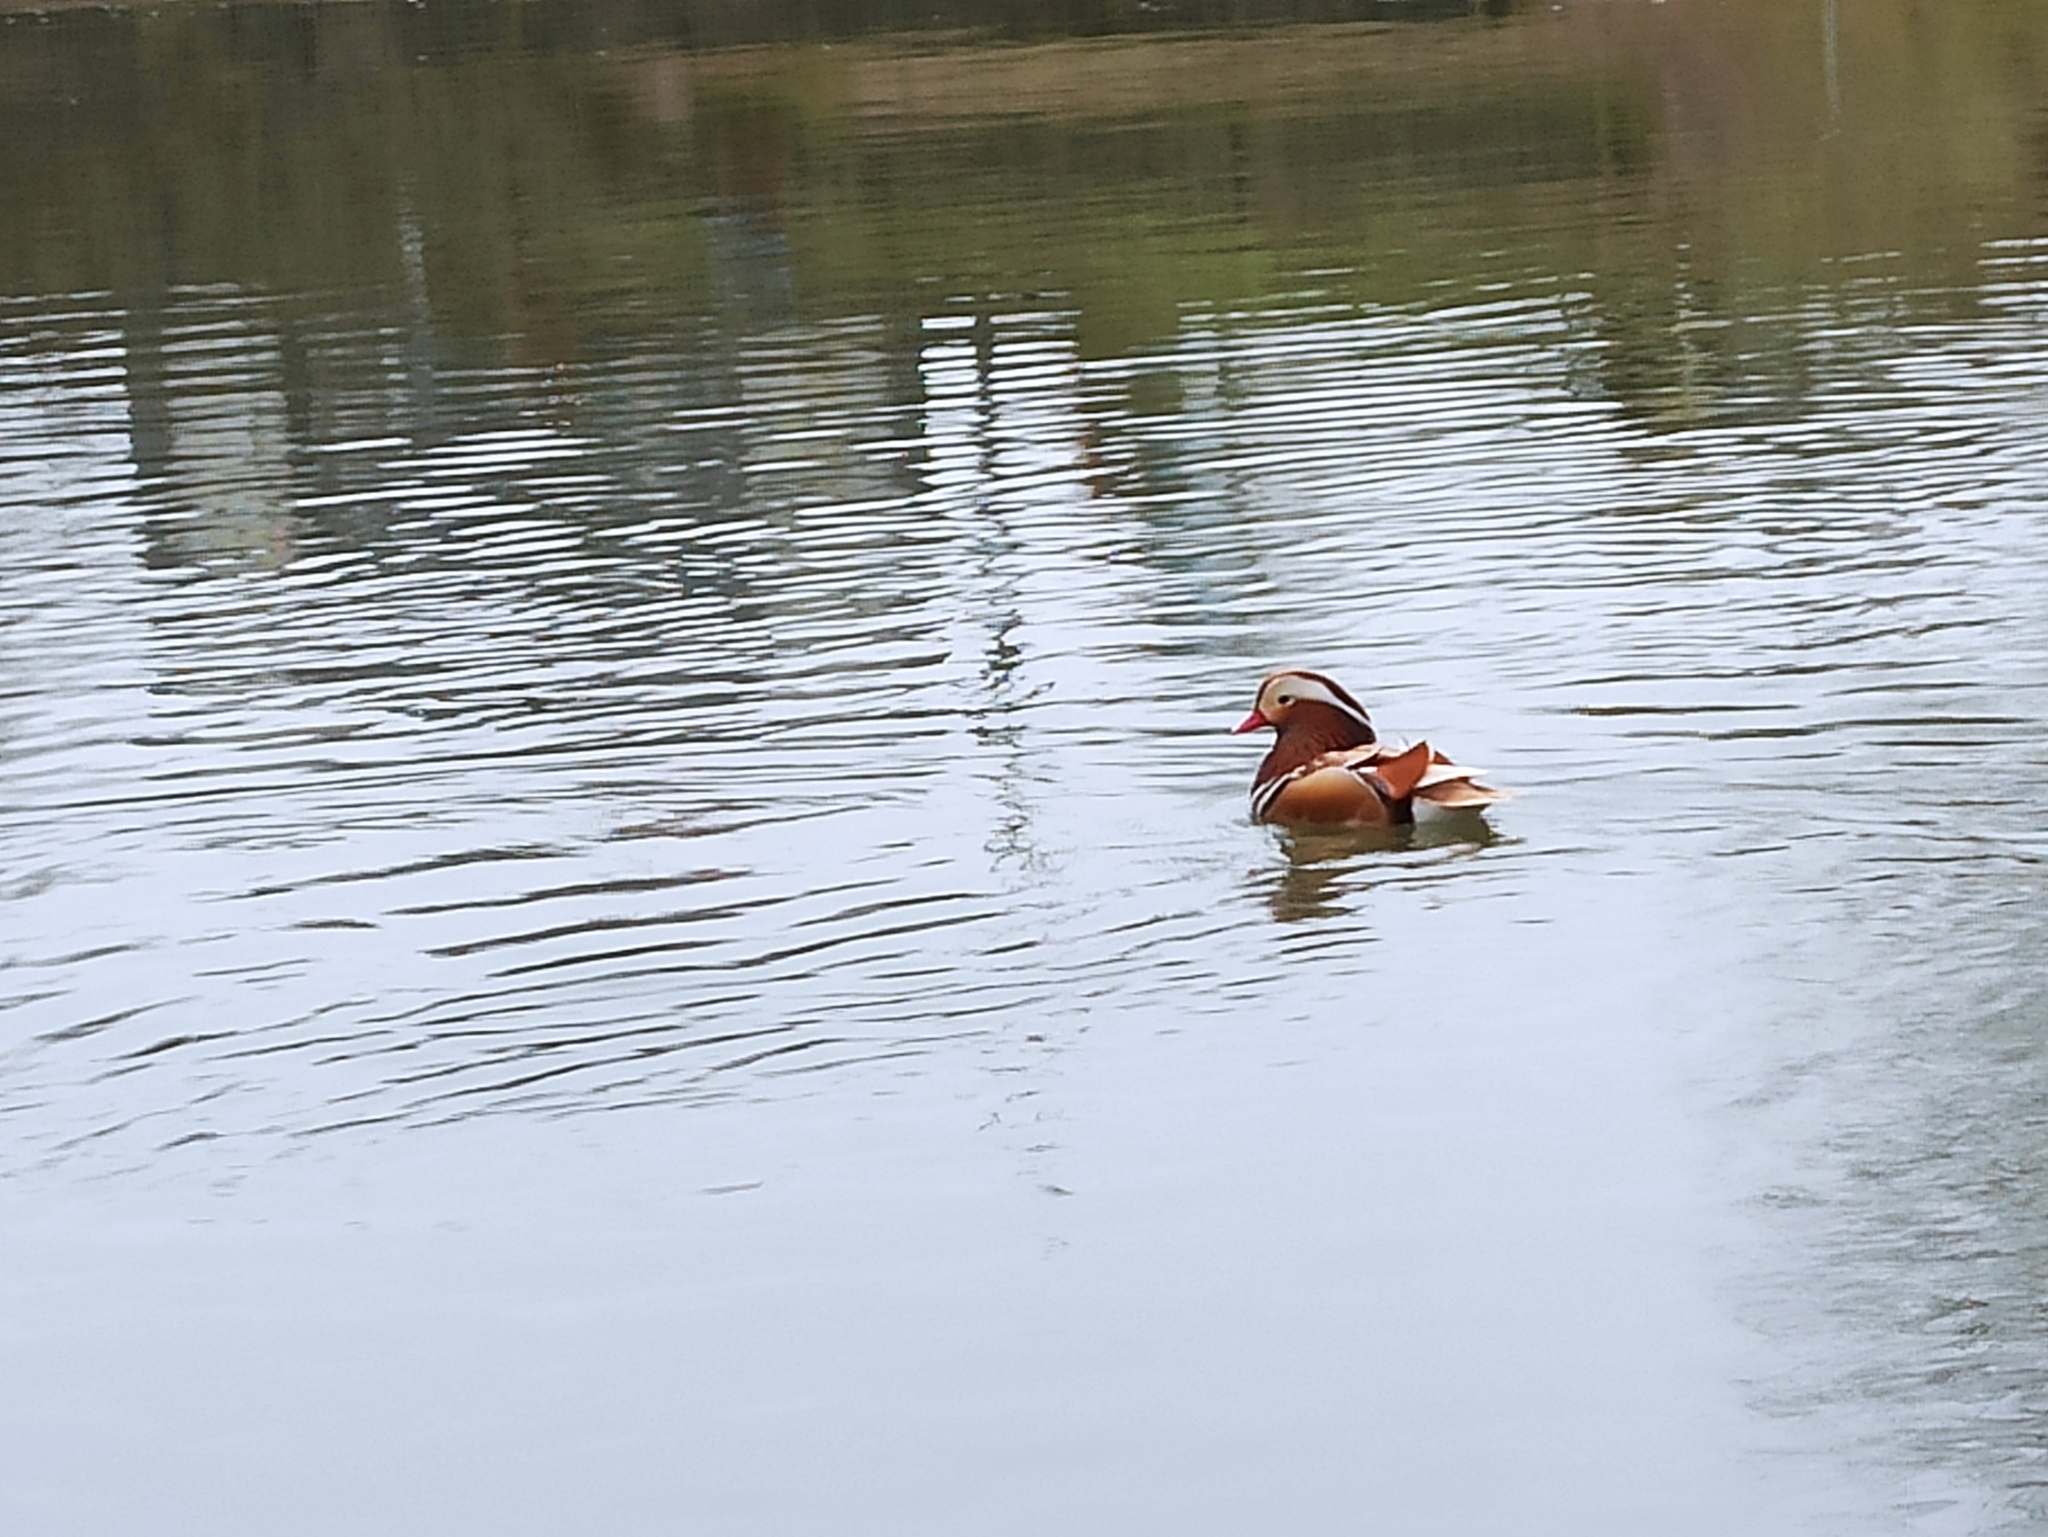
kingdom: Animalia
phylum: Chordata
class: Aves
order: Anseriformes
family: Anatidae
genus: Aix
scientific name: Aix galericulata
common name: Mandarin duck
